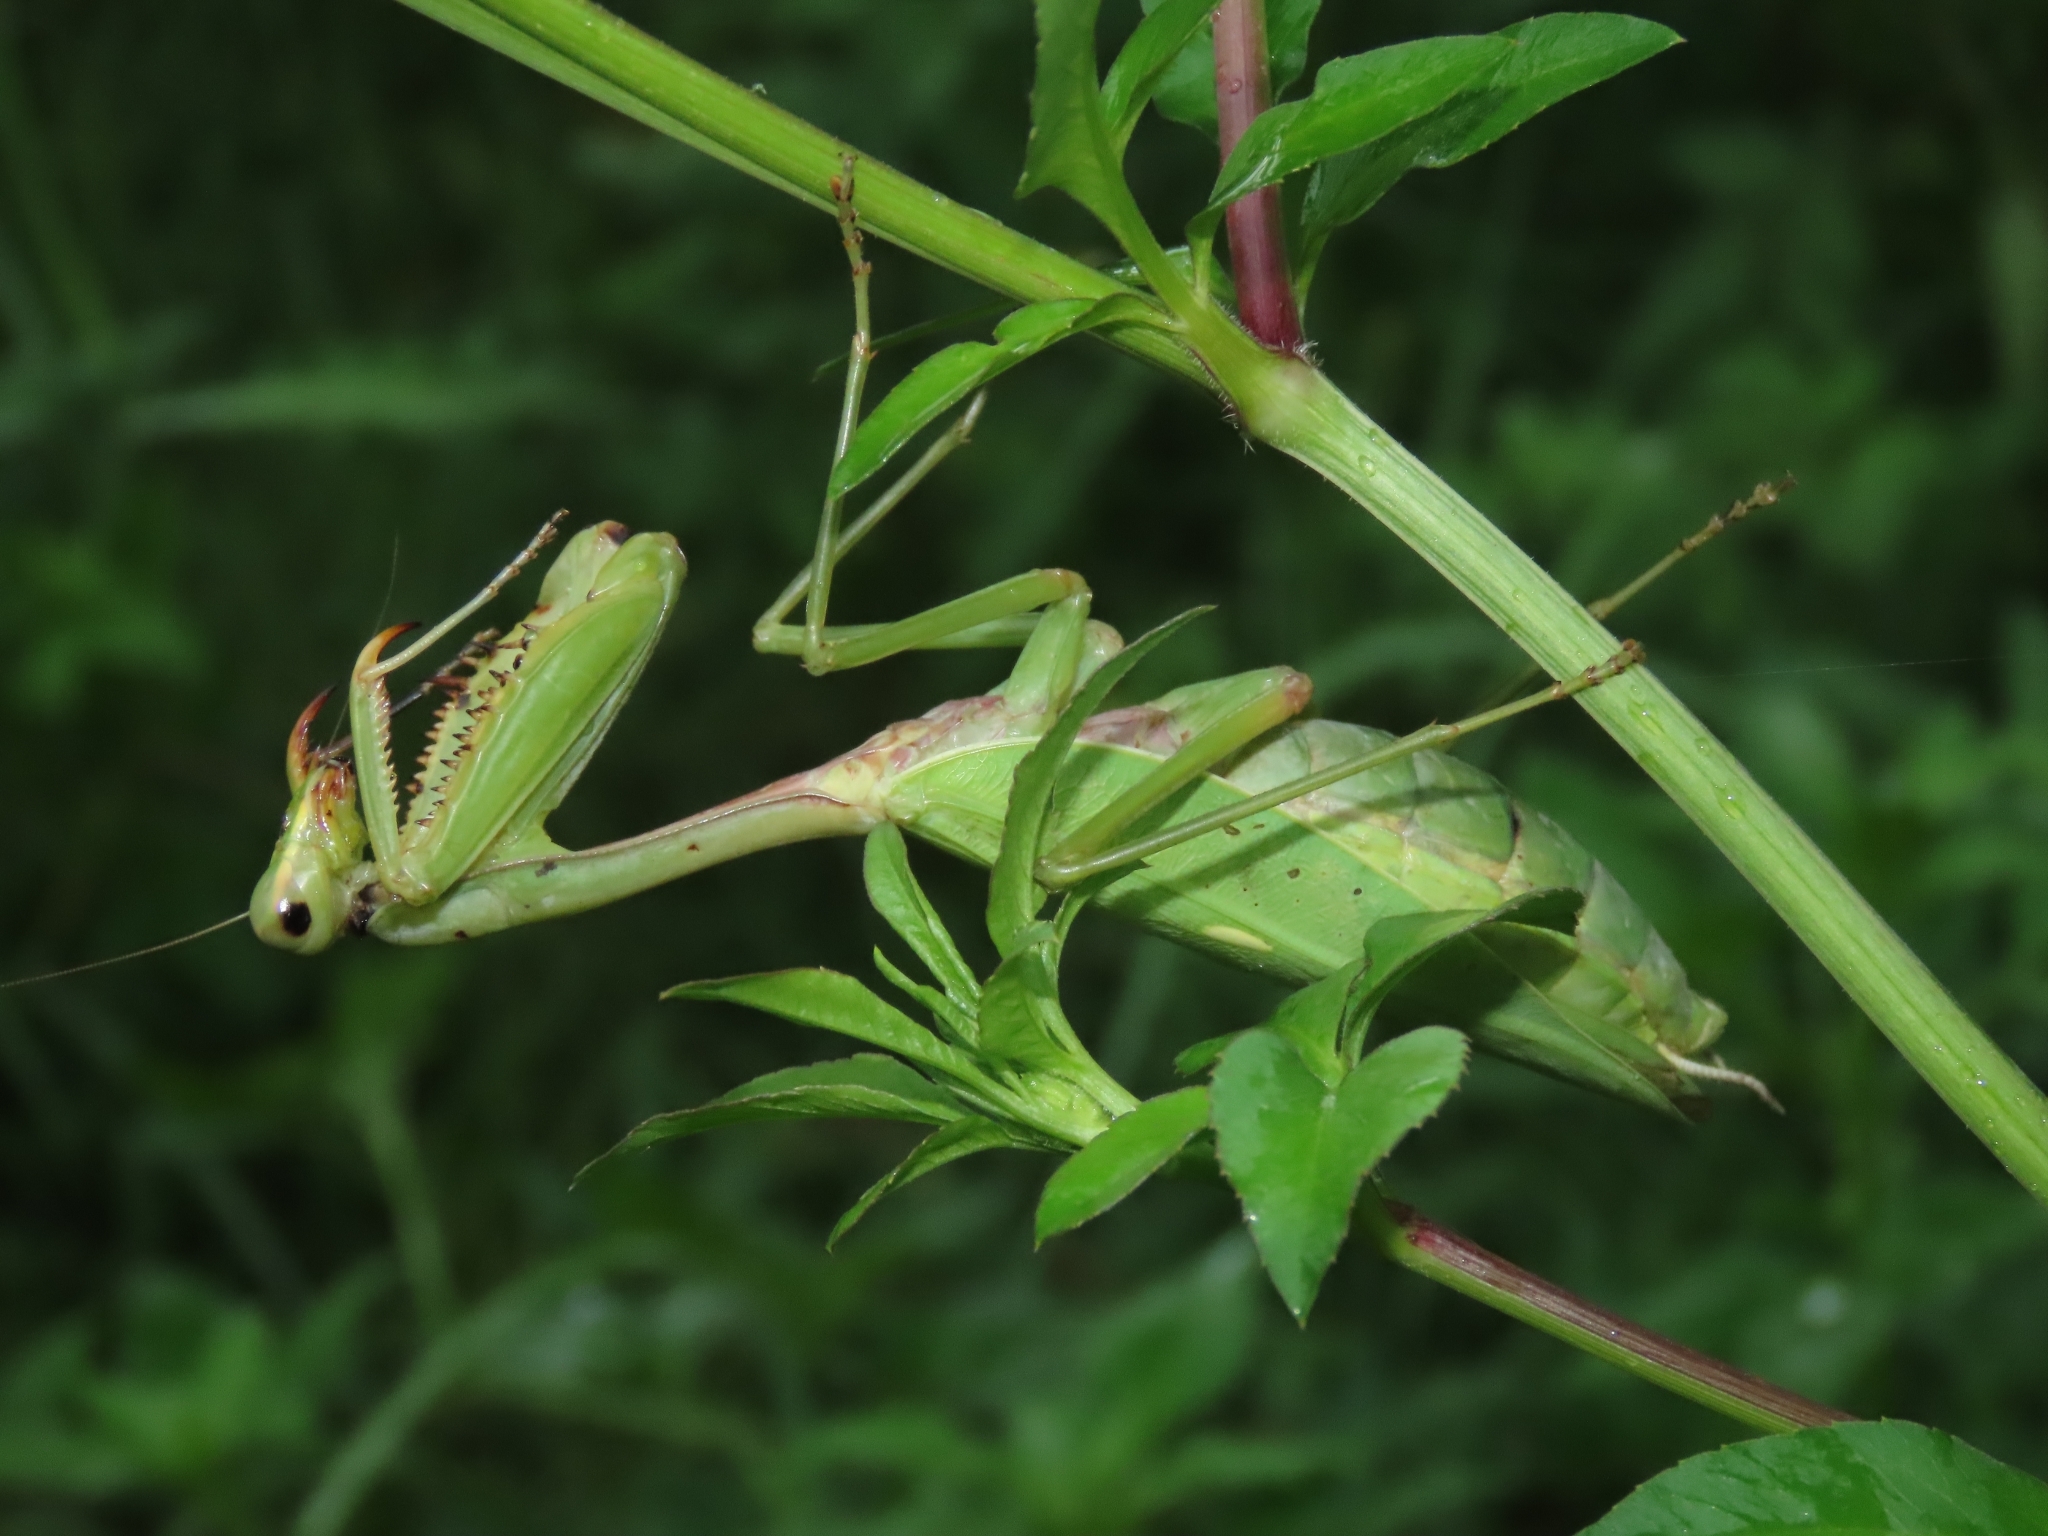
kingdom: Animalia
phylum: Arthropoda
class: Insecta
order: Mantodea
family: Mantidae
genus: Titanodula
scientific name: Titanodula formosana
